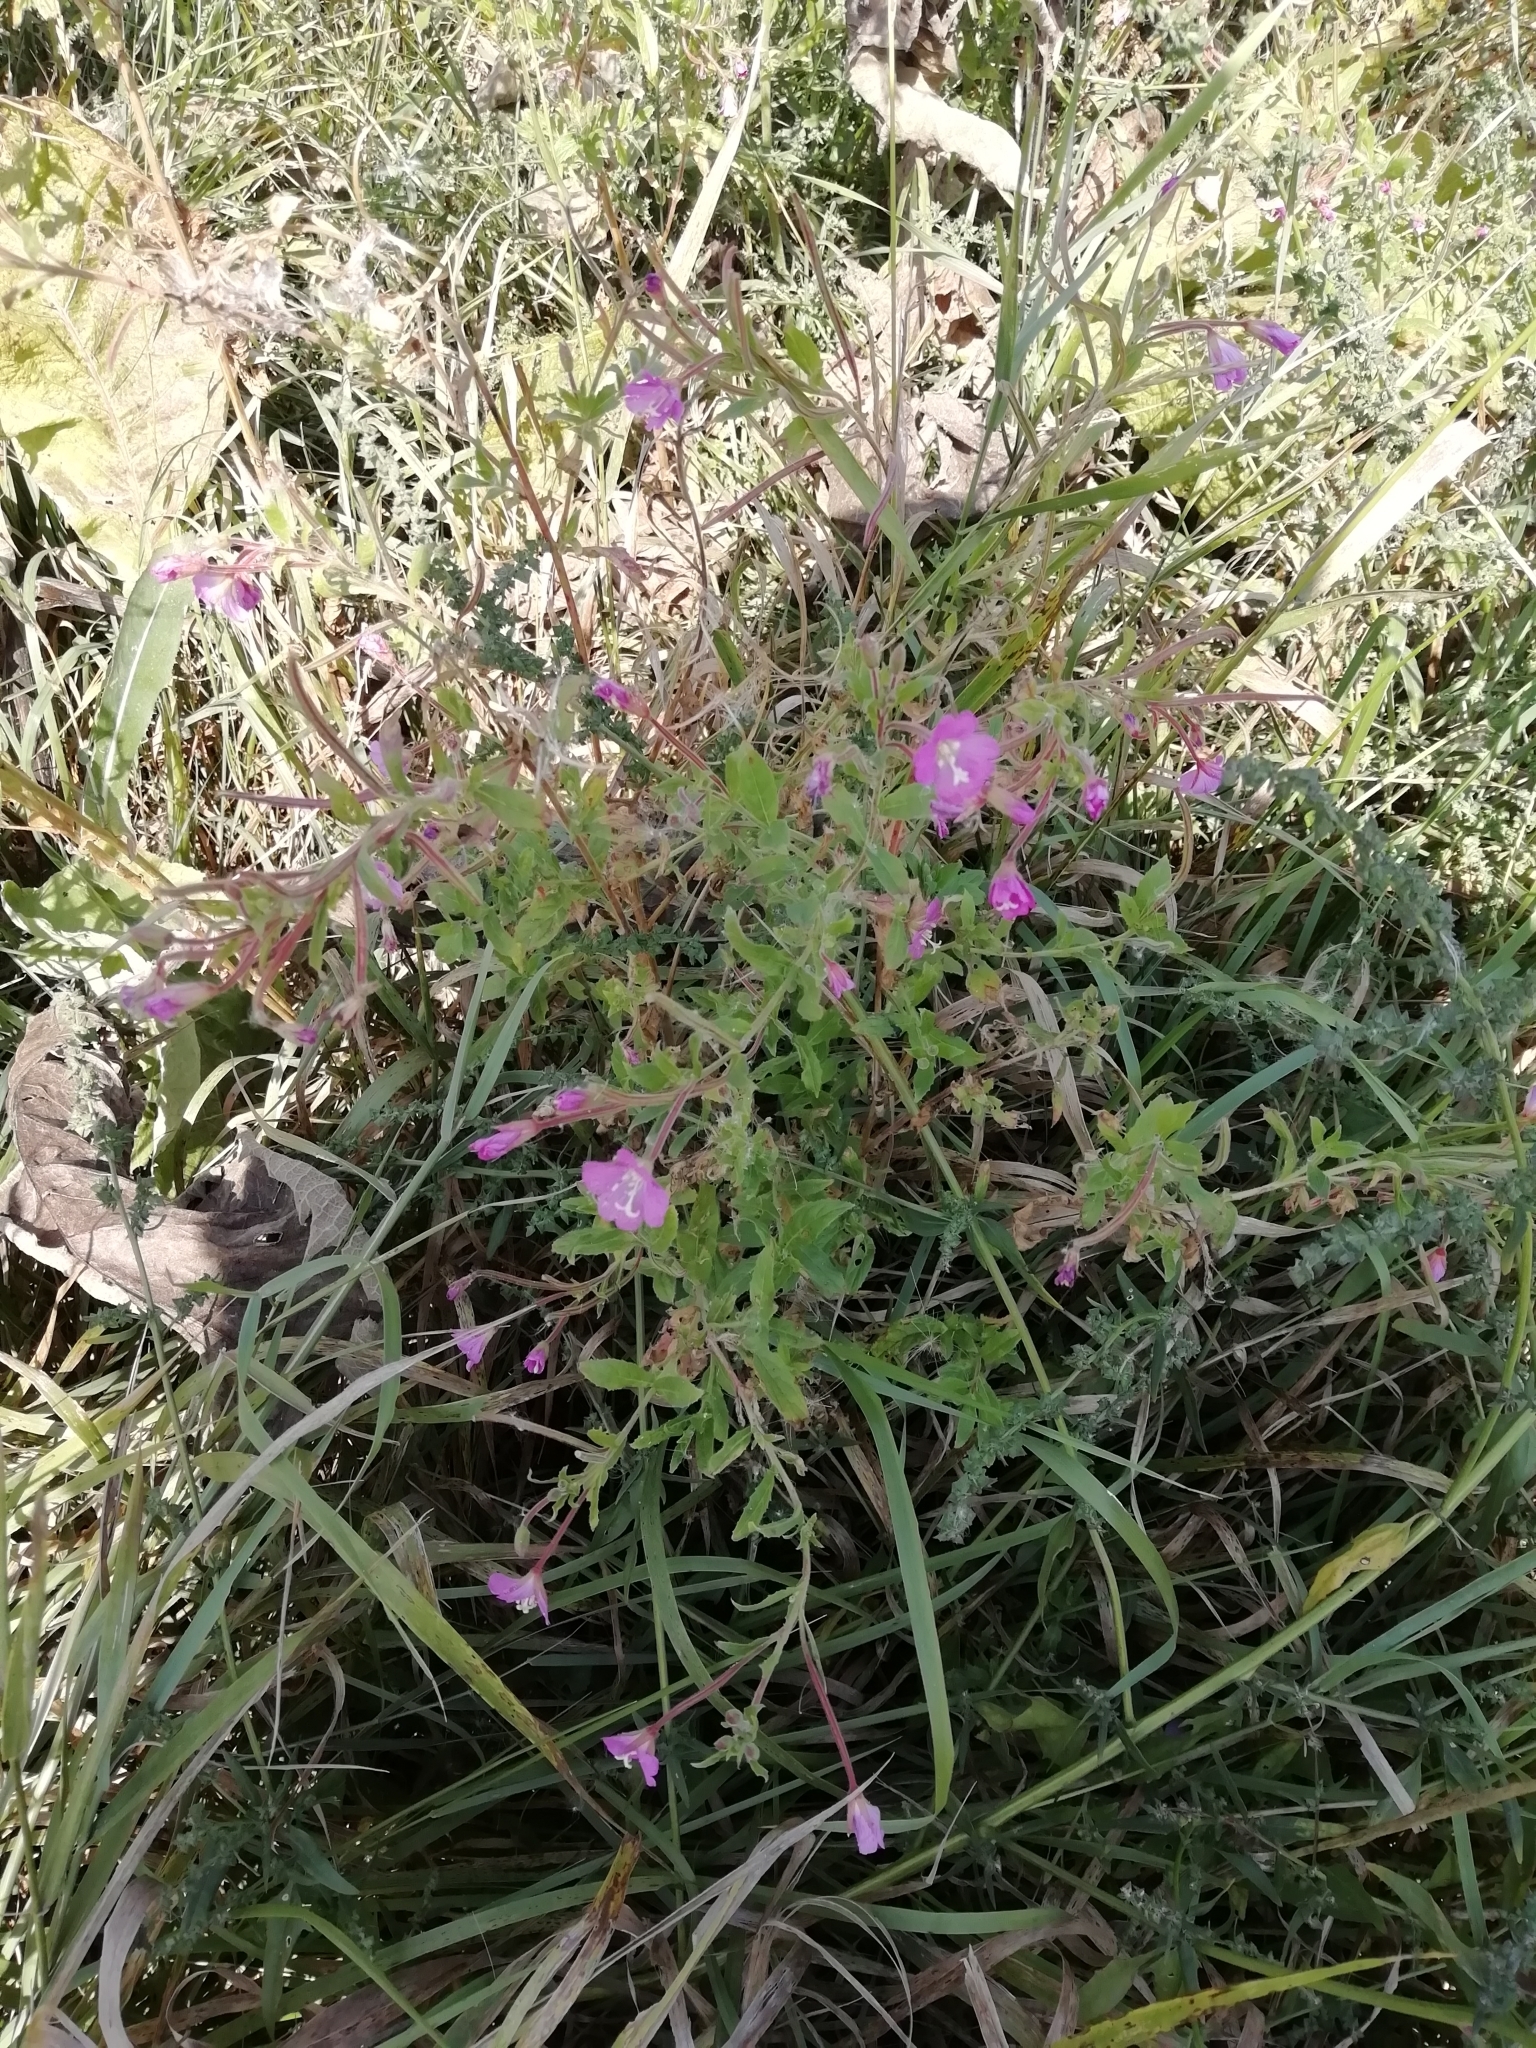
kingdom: Plantae
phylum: Tracheophyta
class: Magnoliopsida
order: Myrtales
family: Onagraceae
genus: Epilobium
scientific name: Epilobium hirsutum
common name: Great willowherb
